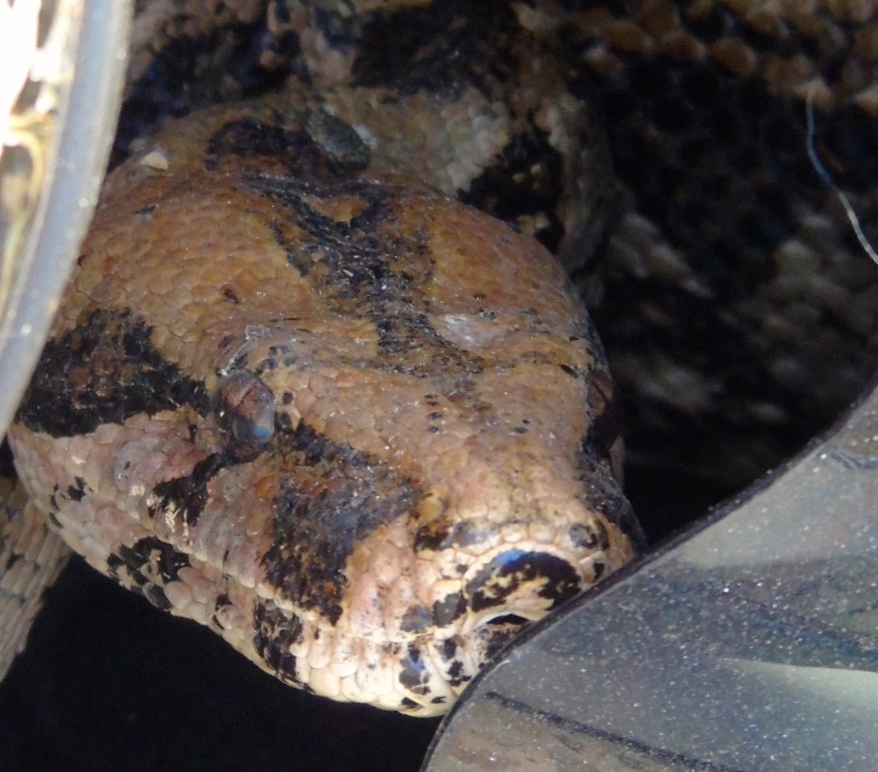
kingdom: Animalia
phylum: Chordata
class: Squamata
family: Boidae
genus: Boa
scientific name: Boa
